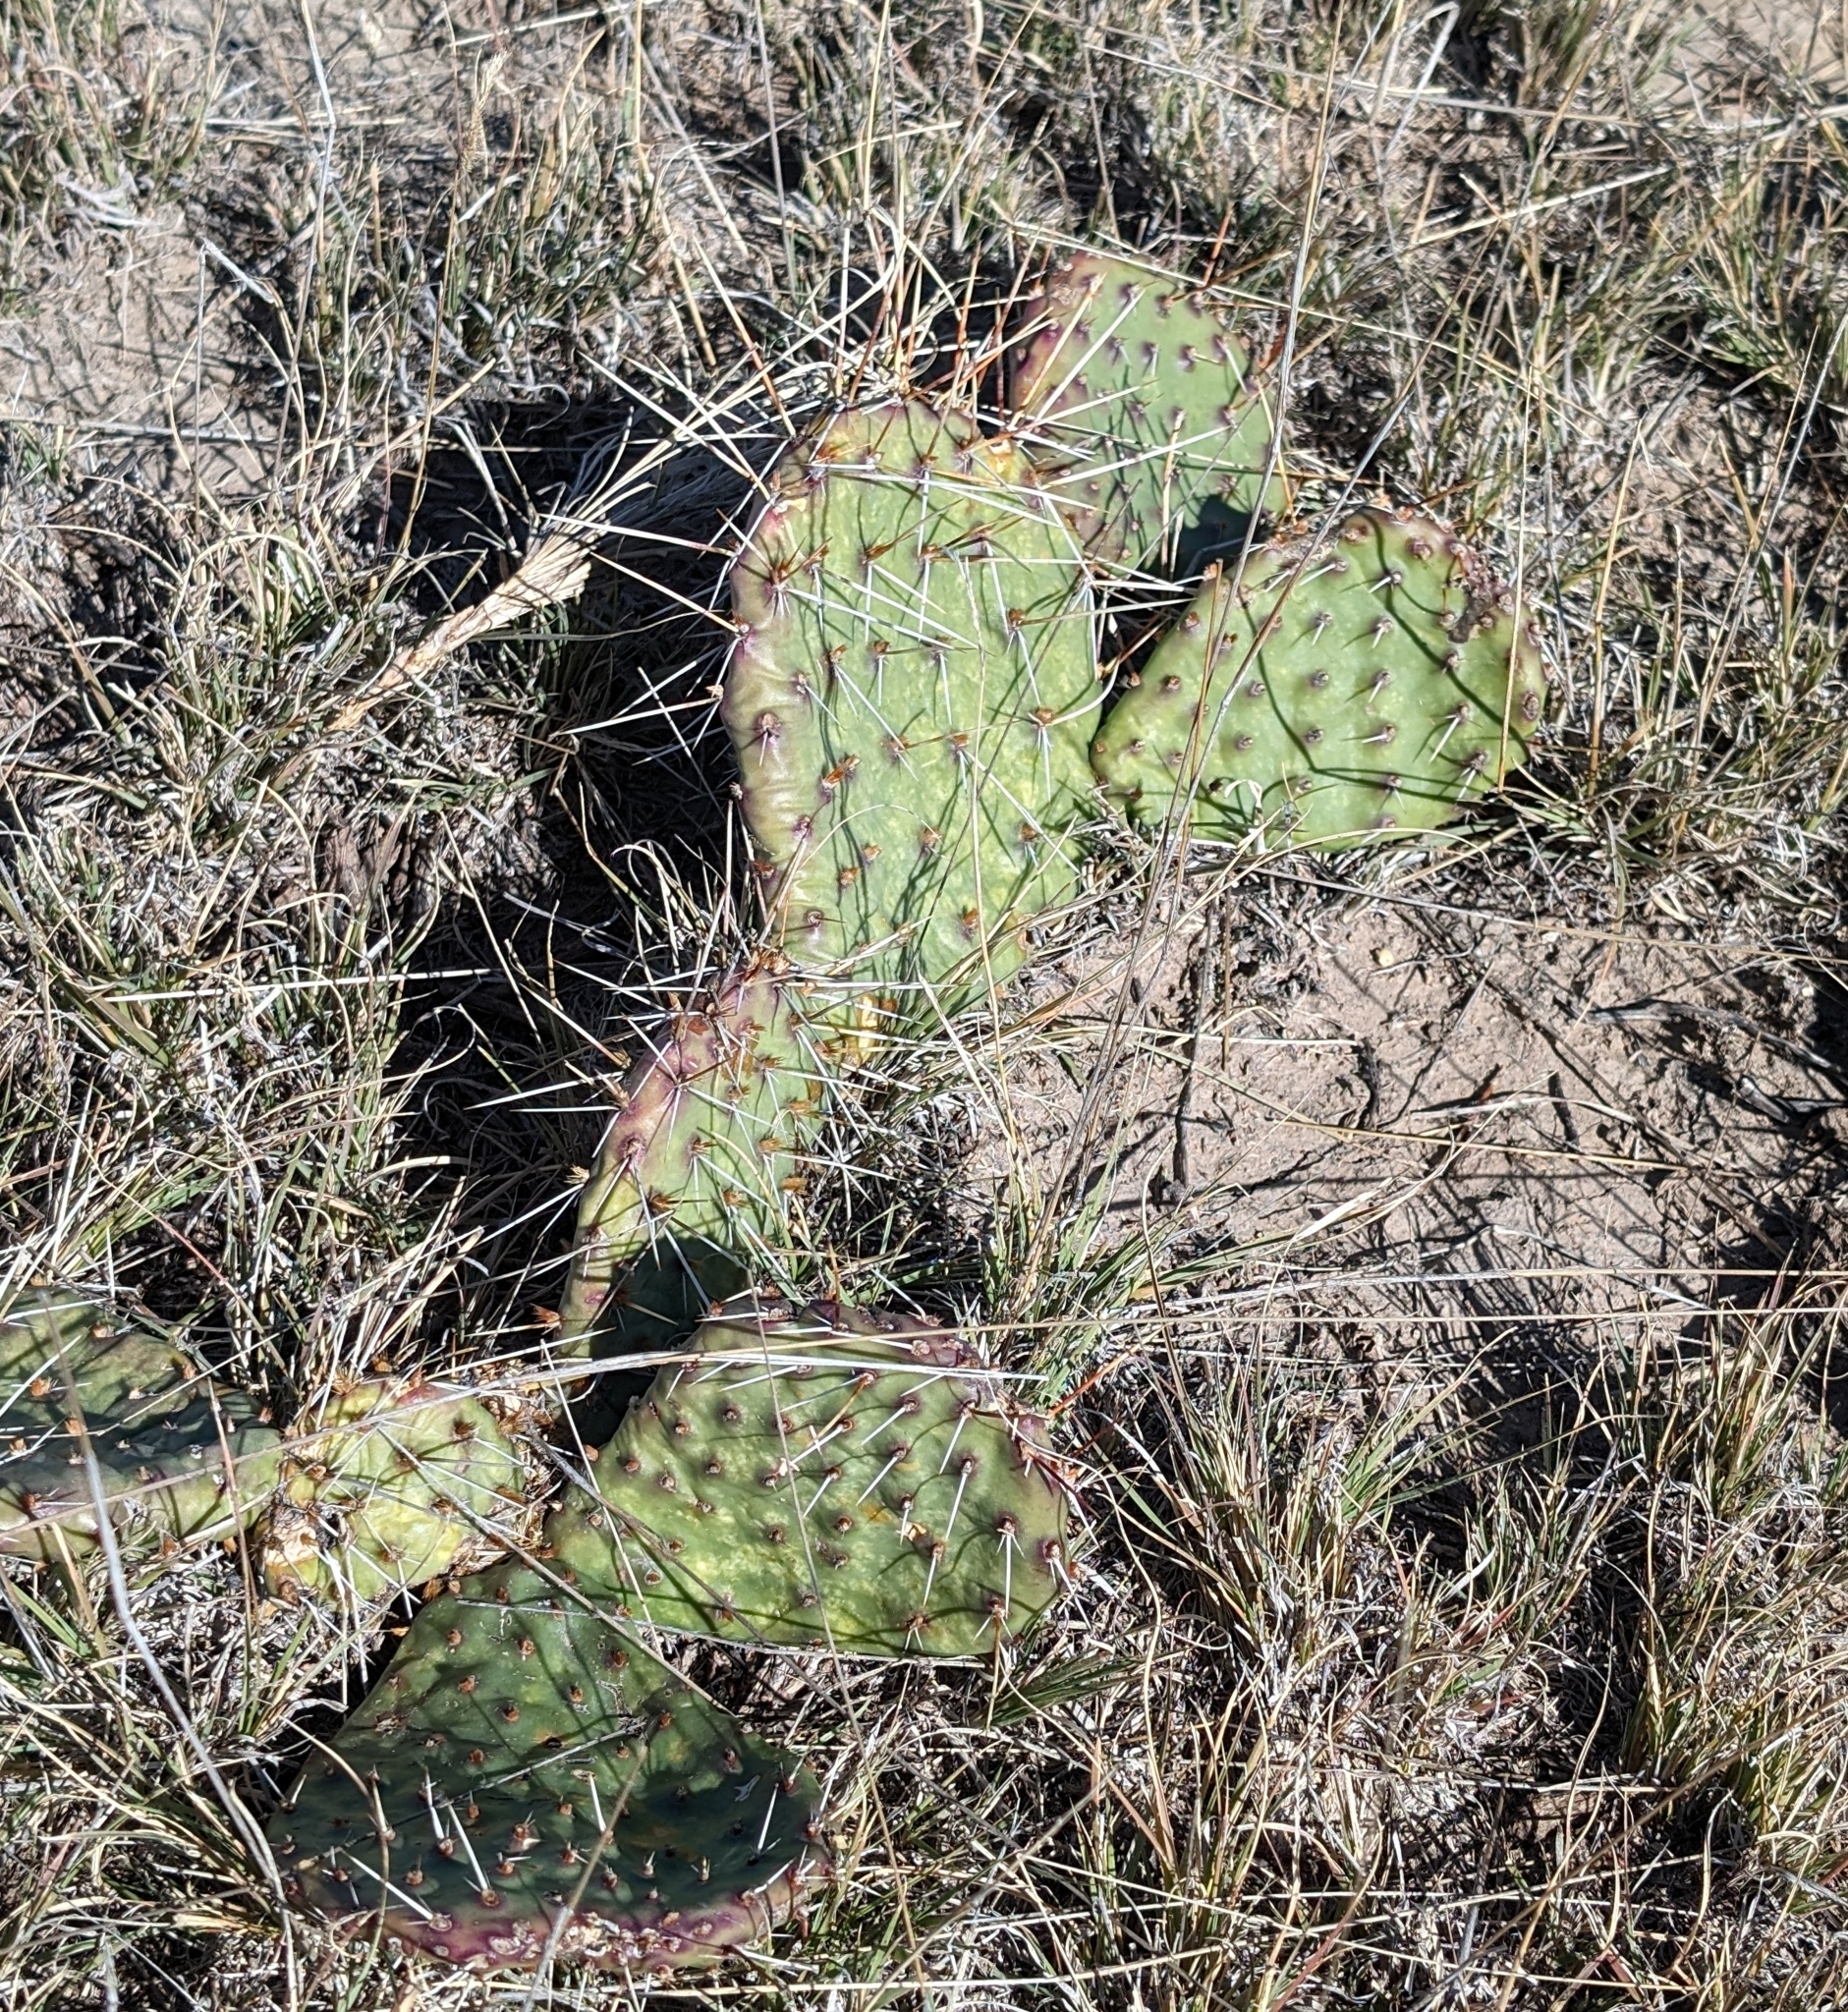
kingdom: Plantae
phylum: Tracheophyta
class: Magnoliopsida
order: Caryophyllales
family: Cactaceae
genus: Opuntia
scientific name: Opuntia macrorhiza
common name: Grassland pricklypear
